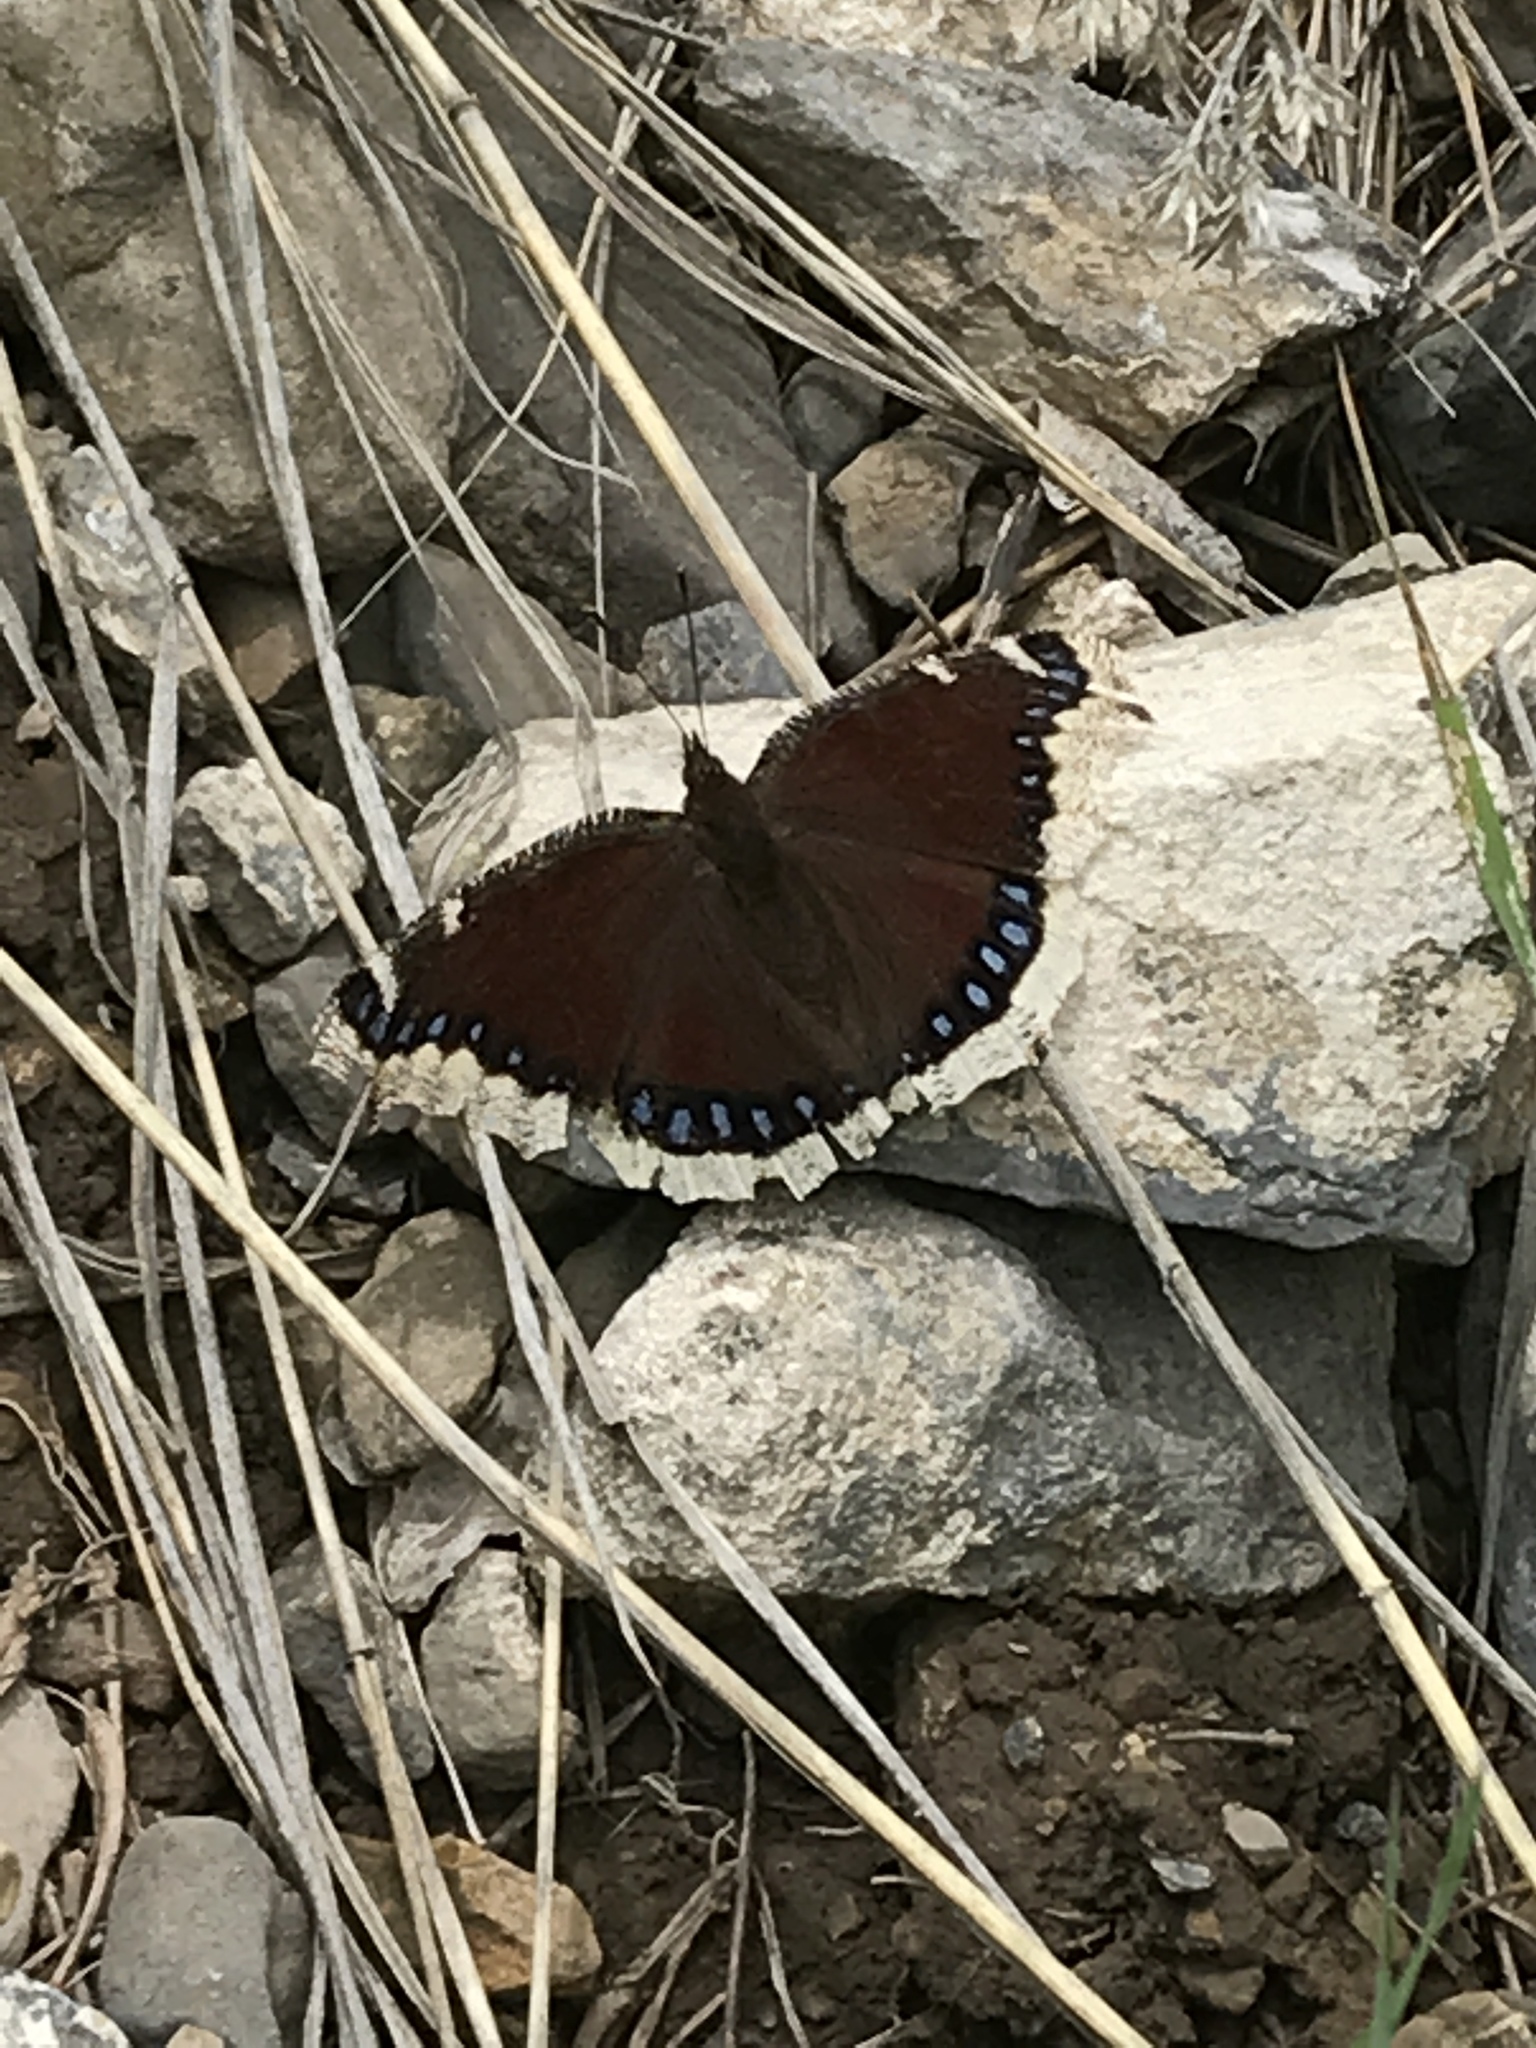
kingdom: Animalia
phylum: Arthropoda
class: Insecta
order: Lepidoptera
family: Nymphalidae
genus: Nymphalis
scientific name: Nymphalis antiopa
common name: Camberwell beauty
